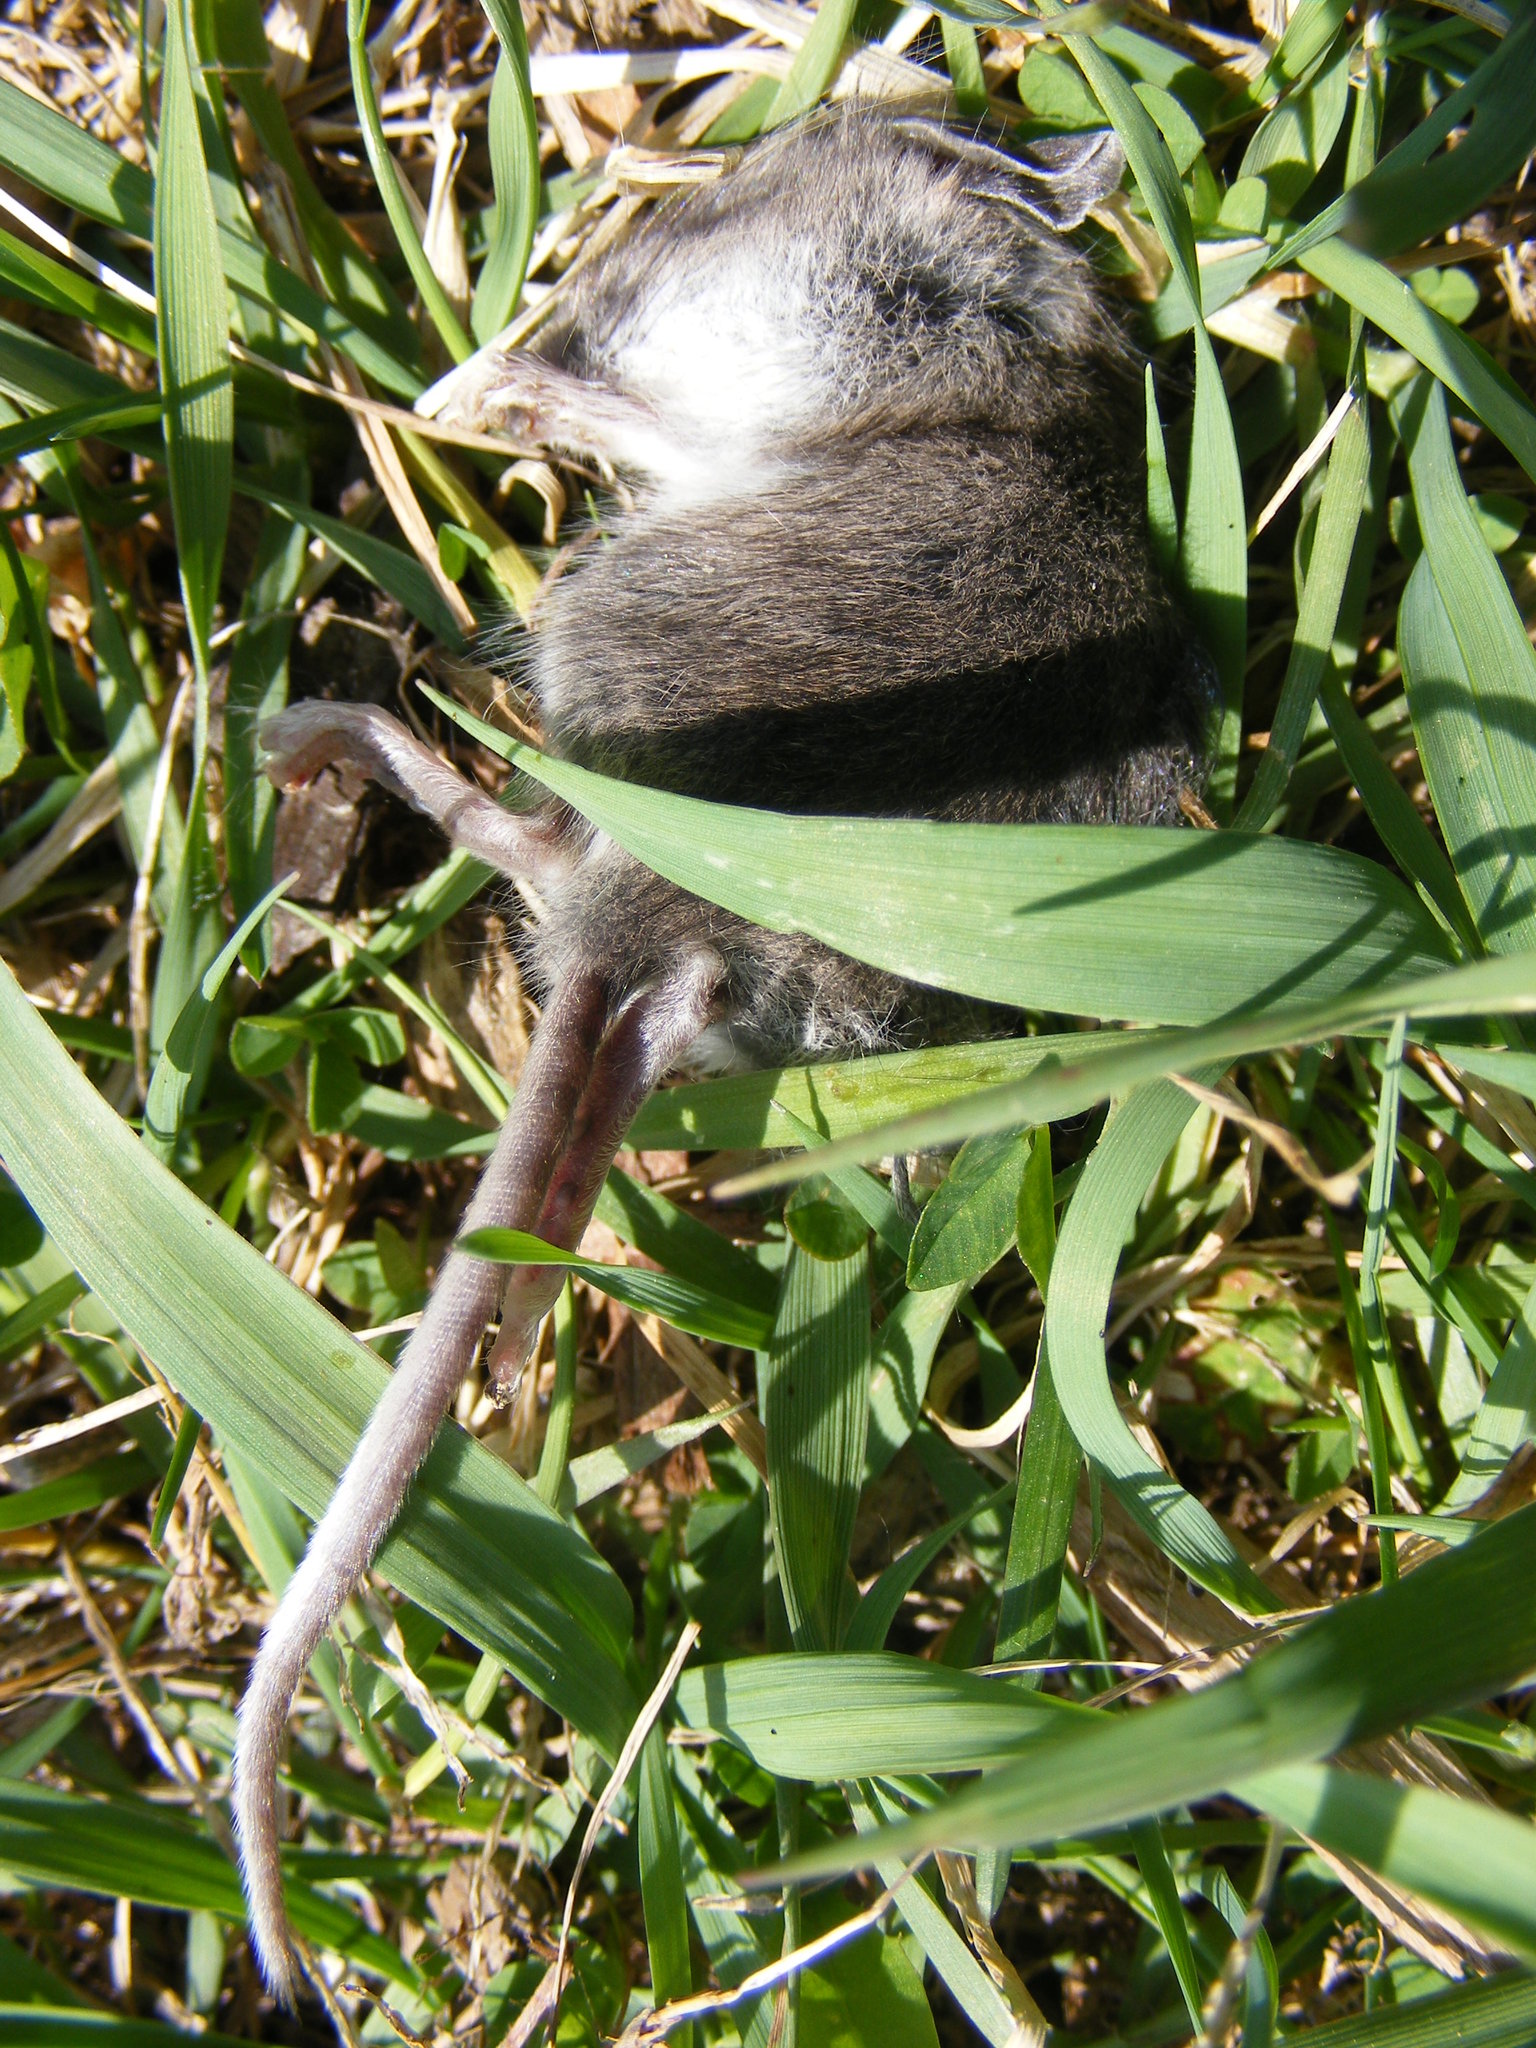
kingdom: Animalia
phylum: Chordata
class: Mammalia
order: Rodentia
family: Muridae
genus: Mus
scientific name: Mus musculus
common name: House mouse
